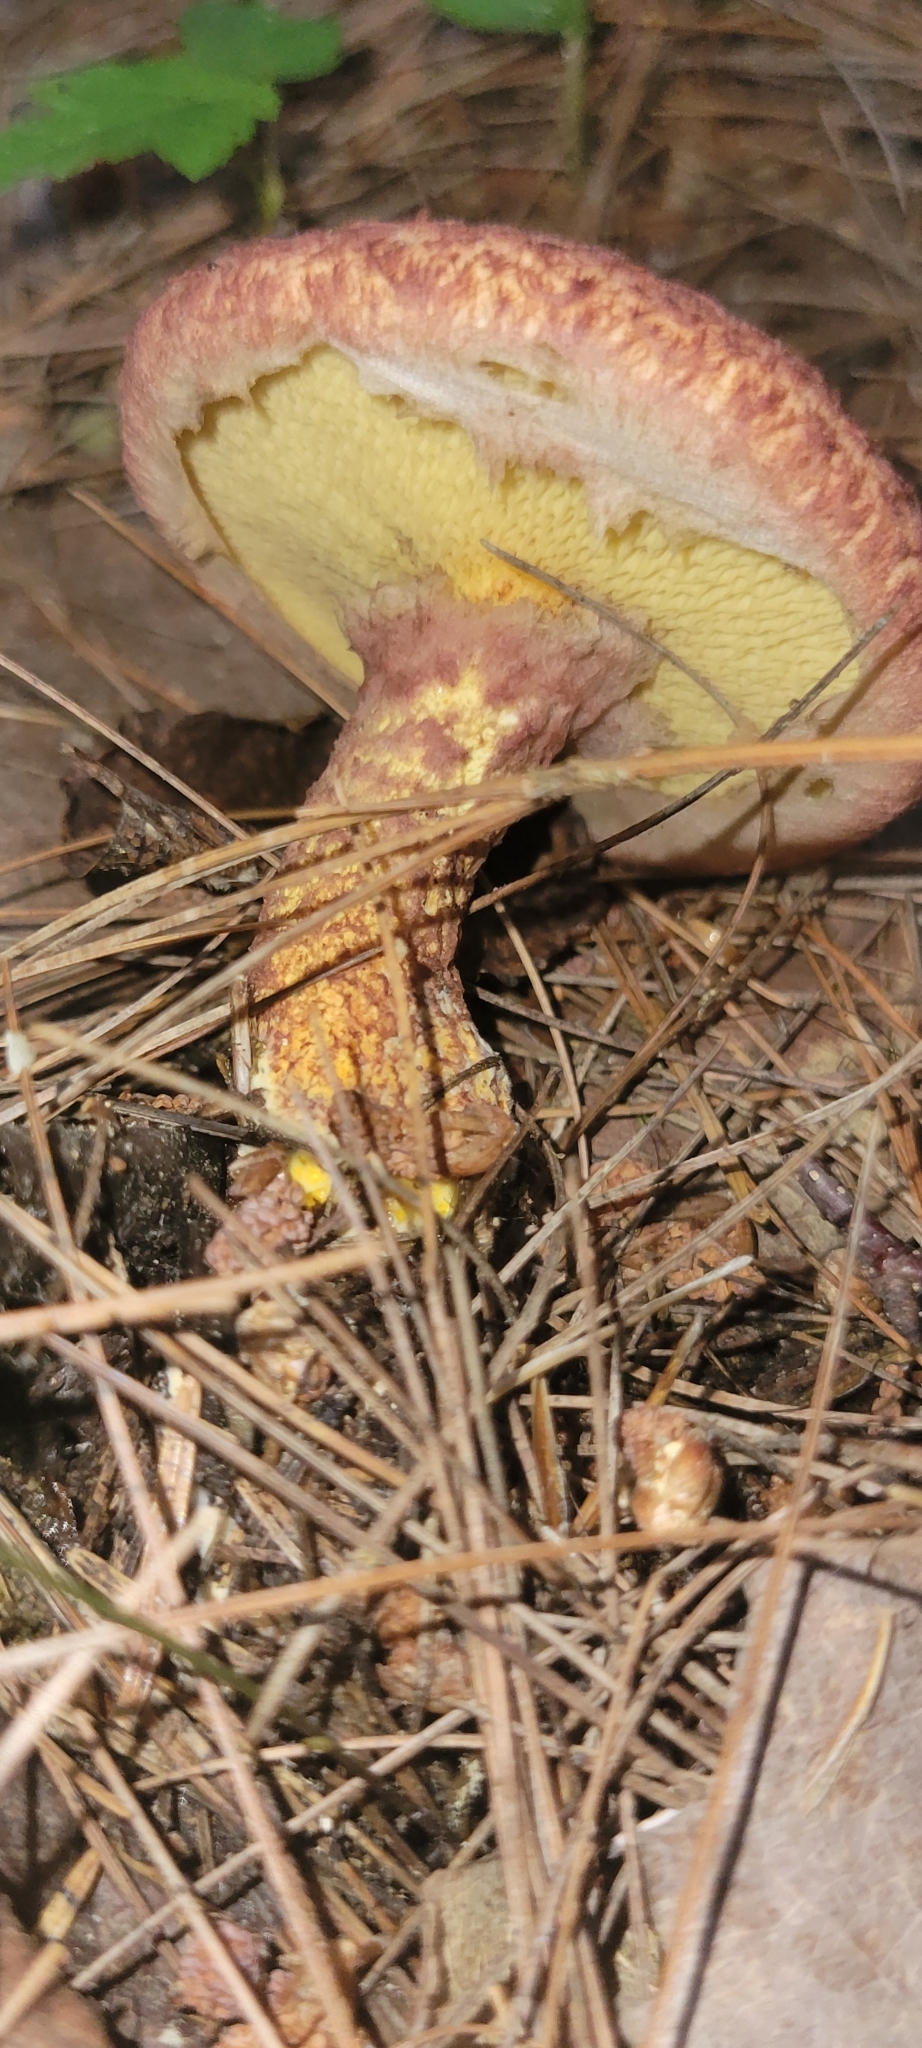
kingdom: Fungi
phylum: Basidiomycota
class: Agaricomycetes
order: Boletales
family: Suillaceae
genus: Suillus
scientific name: Suillus spraguei
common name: Painted suillus
